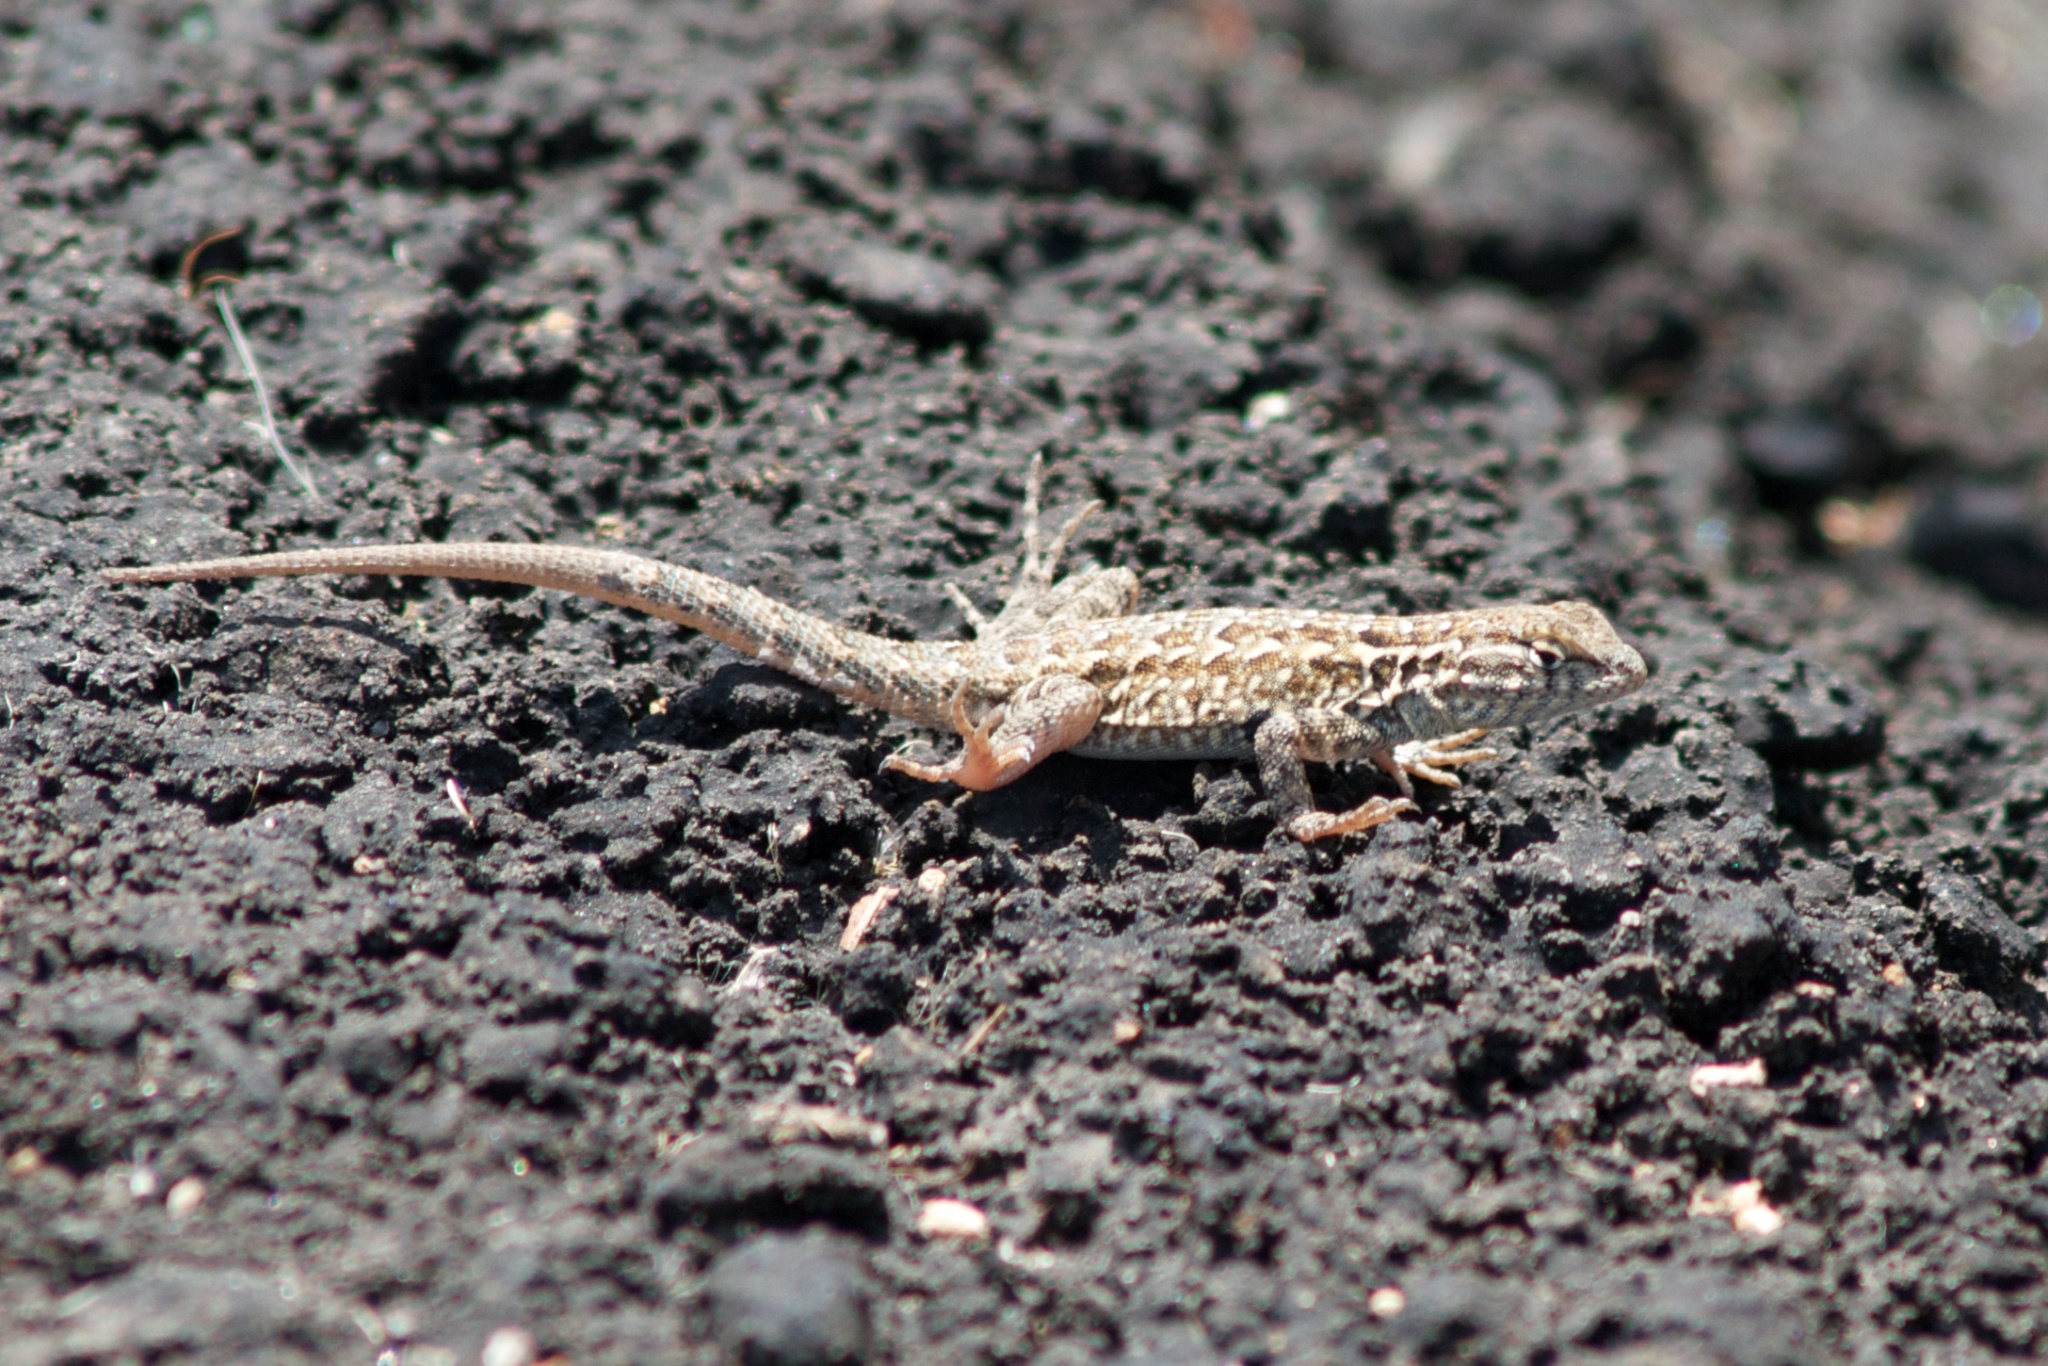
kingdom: Animalia
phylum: Chordata
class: Squamata
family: Phrynosomatidae
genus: Uta
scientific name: Uta stansburiana
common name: Side-blotched lizard
